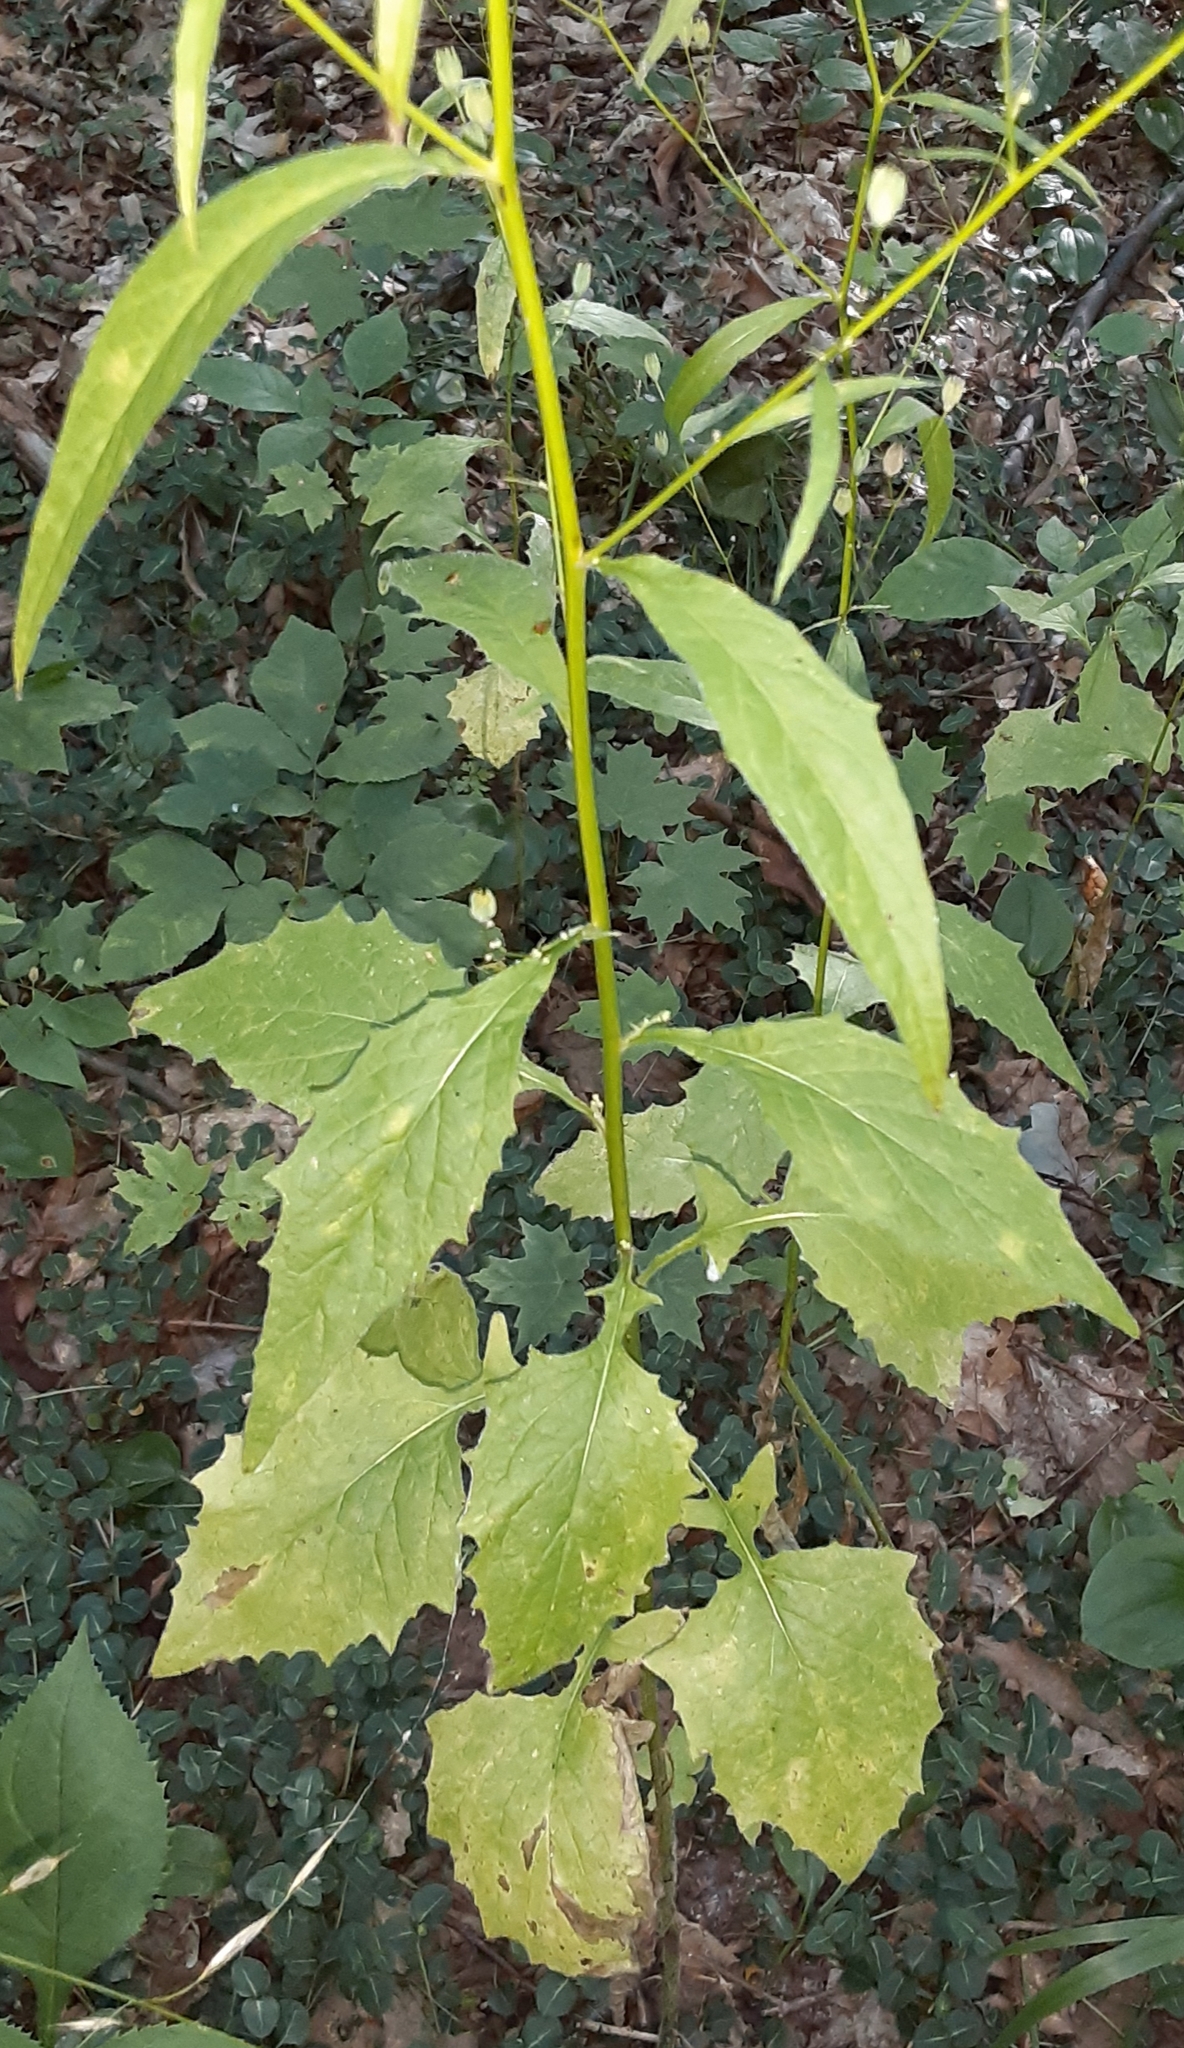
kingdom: Plantae
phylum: Tracheophyta
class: Magnoliopsida
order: Asterales
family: Asteraceae
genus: Lapsana
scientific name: Lapsana communis
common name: Nipplewort
